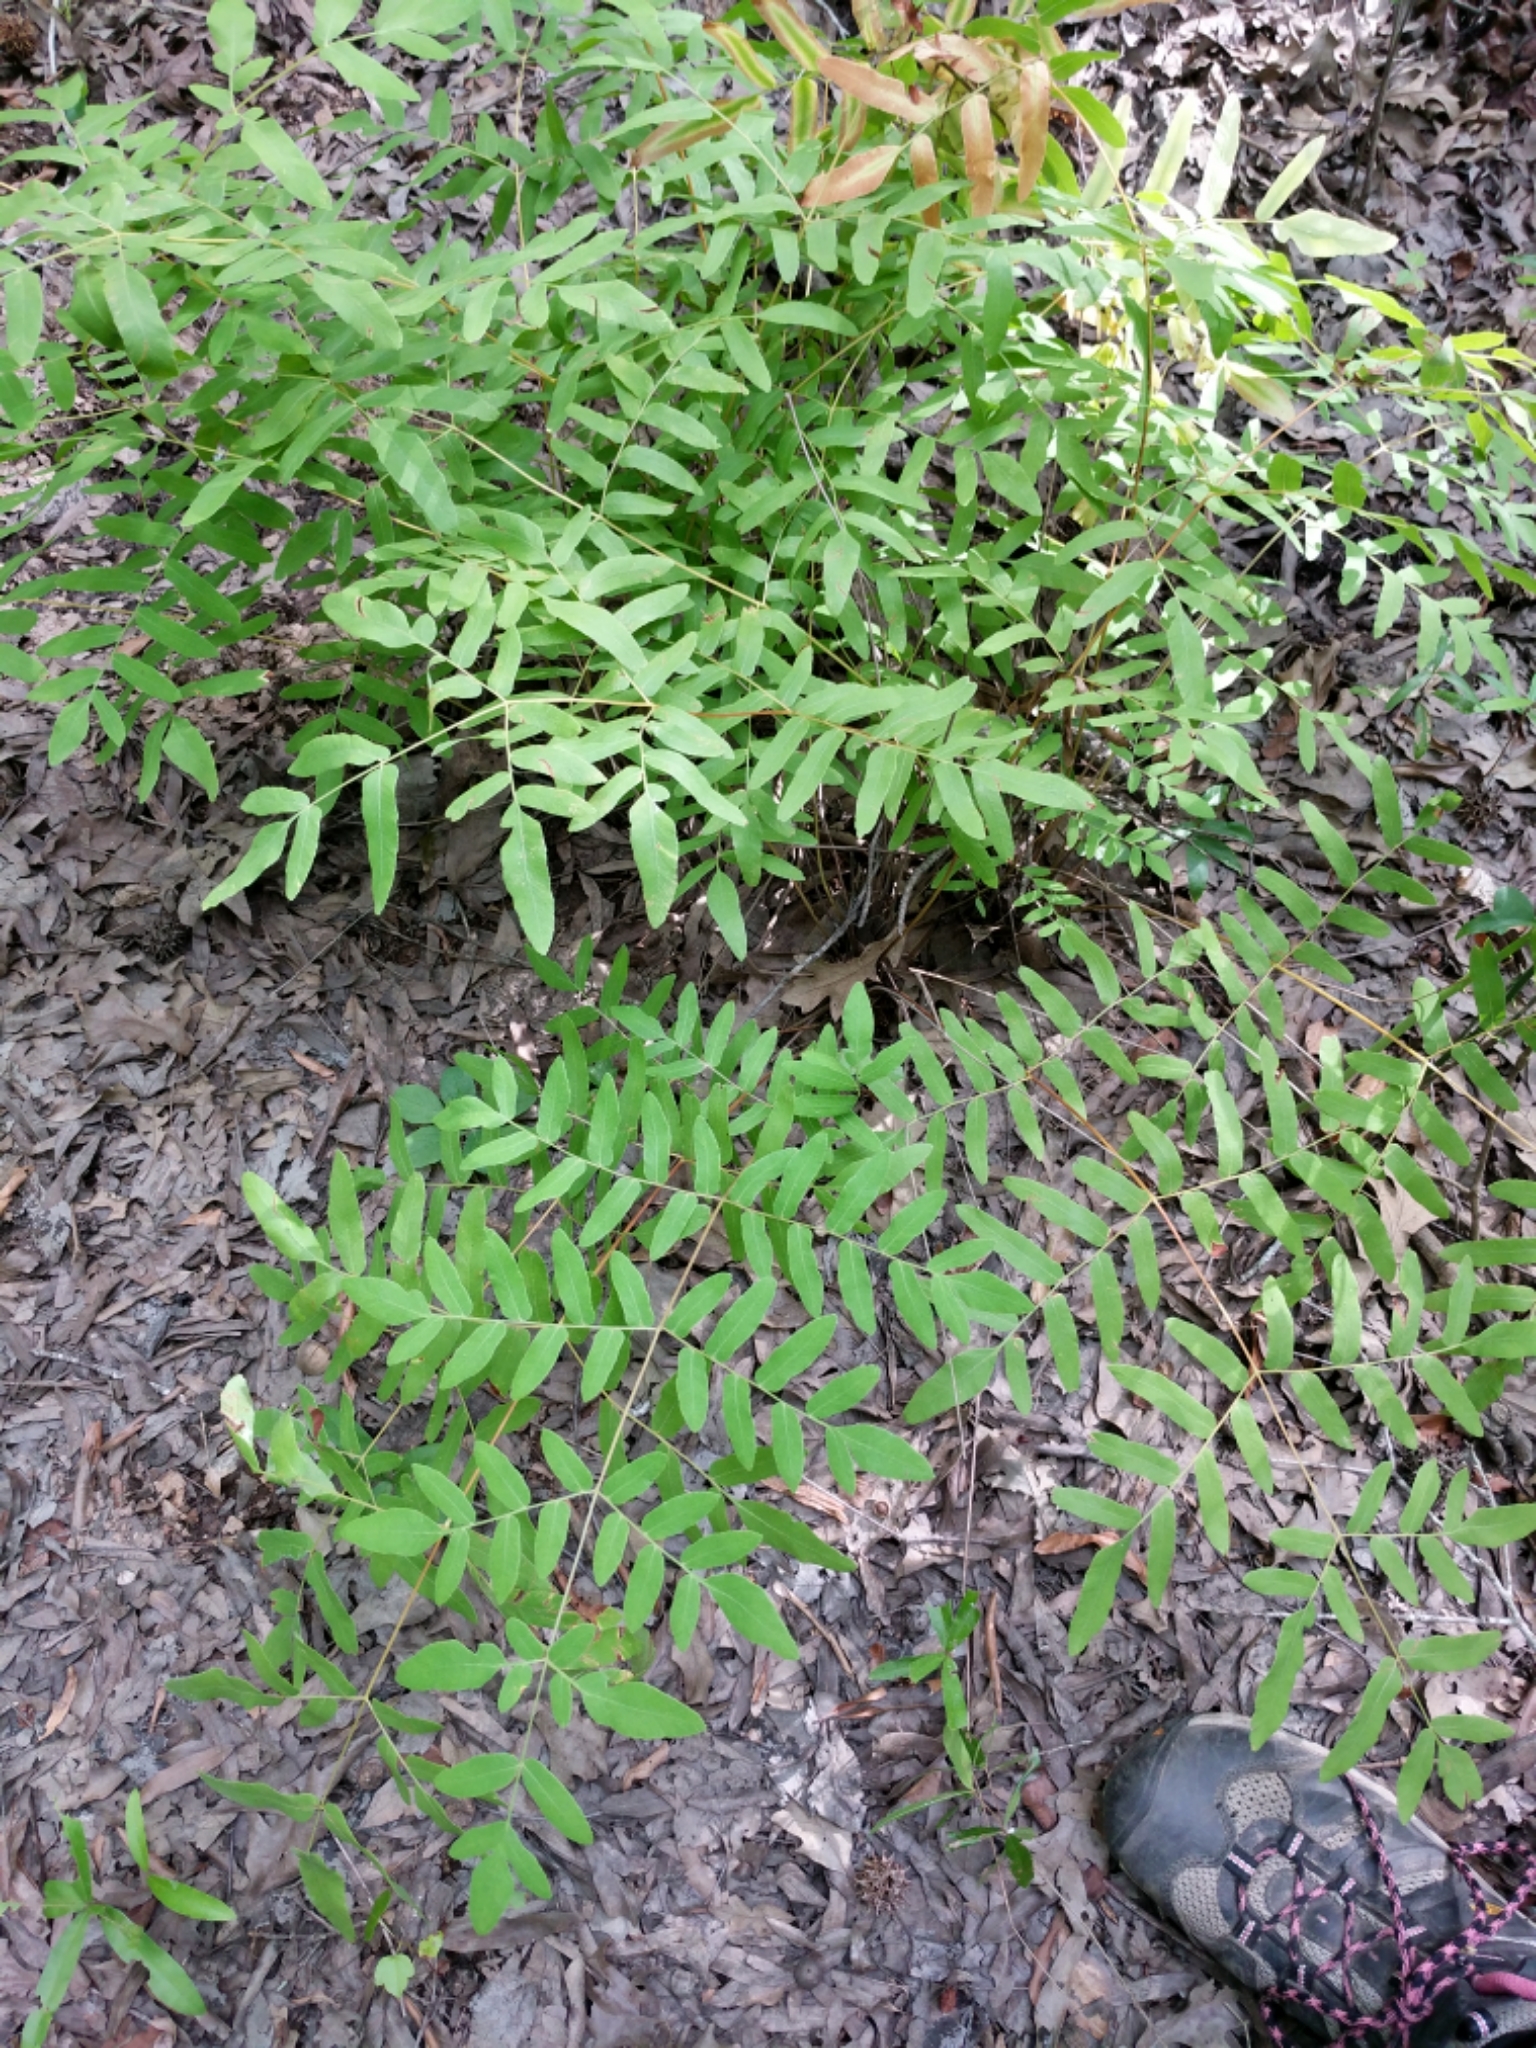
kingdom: Plantae
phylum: Tracheophyta
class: Polypodiopsida
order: Osmundales
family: Osmundaceae
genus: Osmunda
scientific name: Osmunda spectabilis
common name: American royal fern
